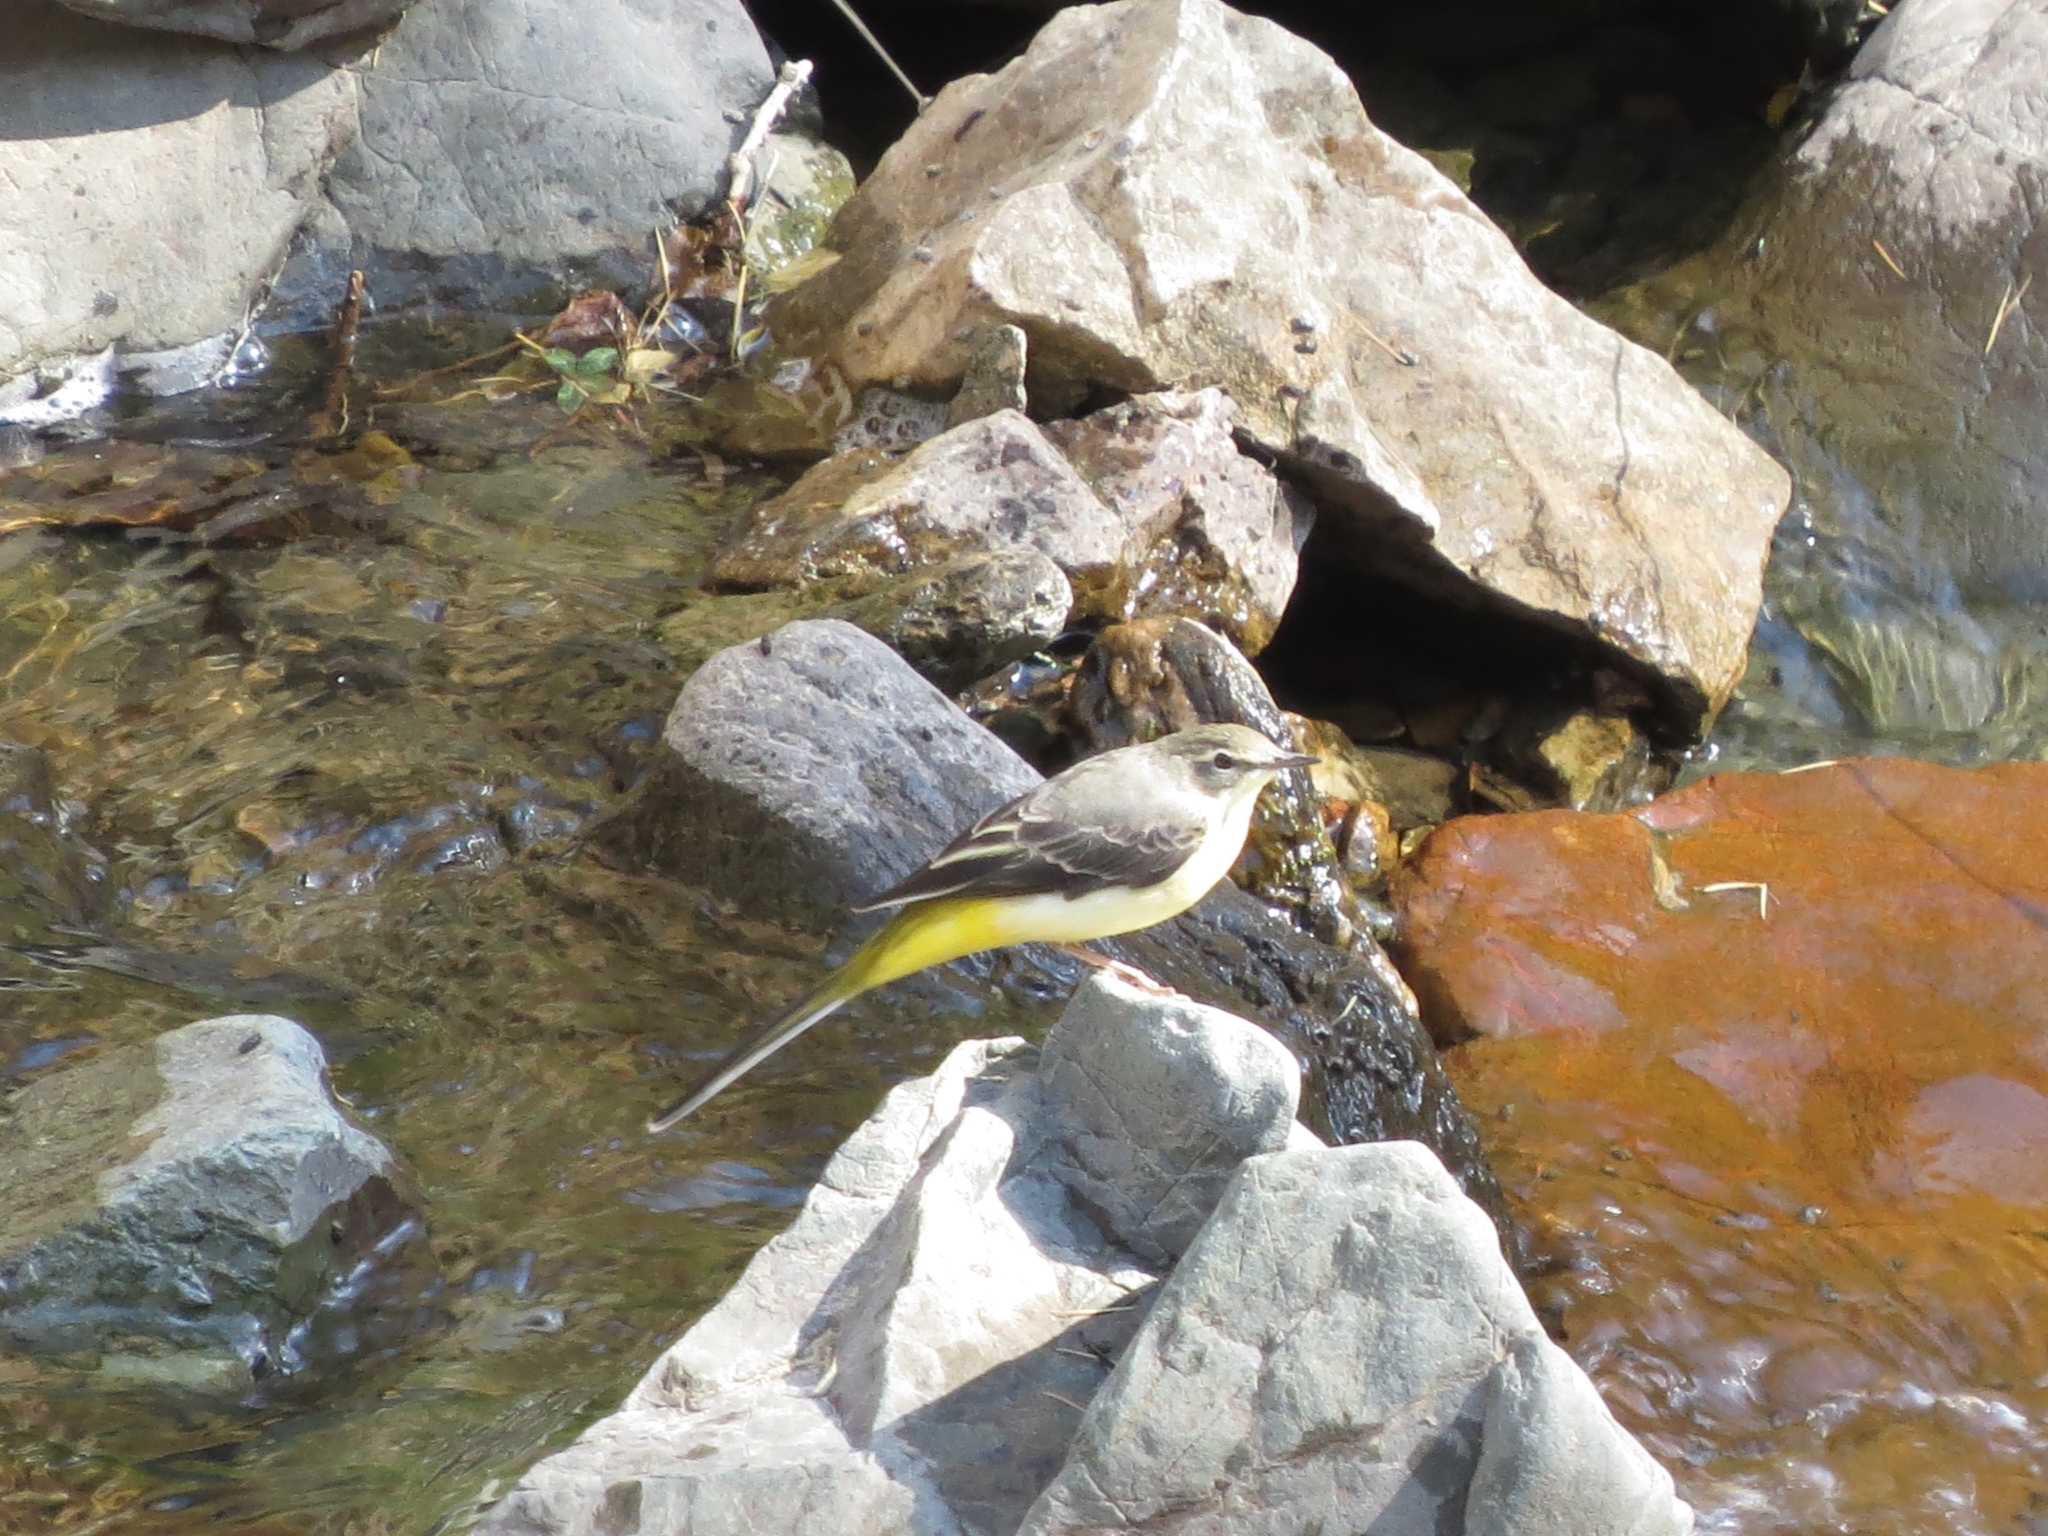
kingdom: Animalia
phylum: Chordata
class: Aves
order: Passeriformes
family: Motacillidae
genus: Motacilla
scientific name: Motacilla cinerea
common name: Grey wagtail
